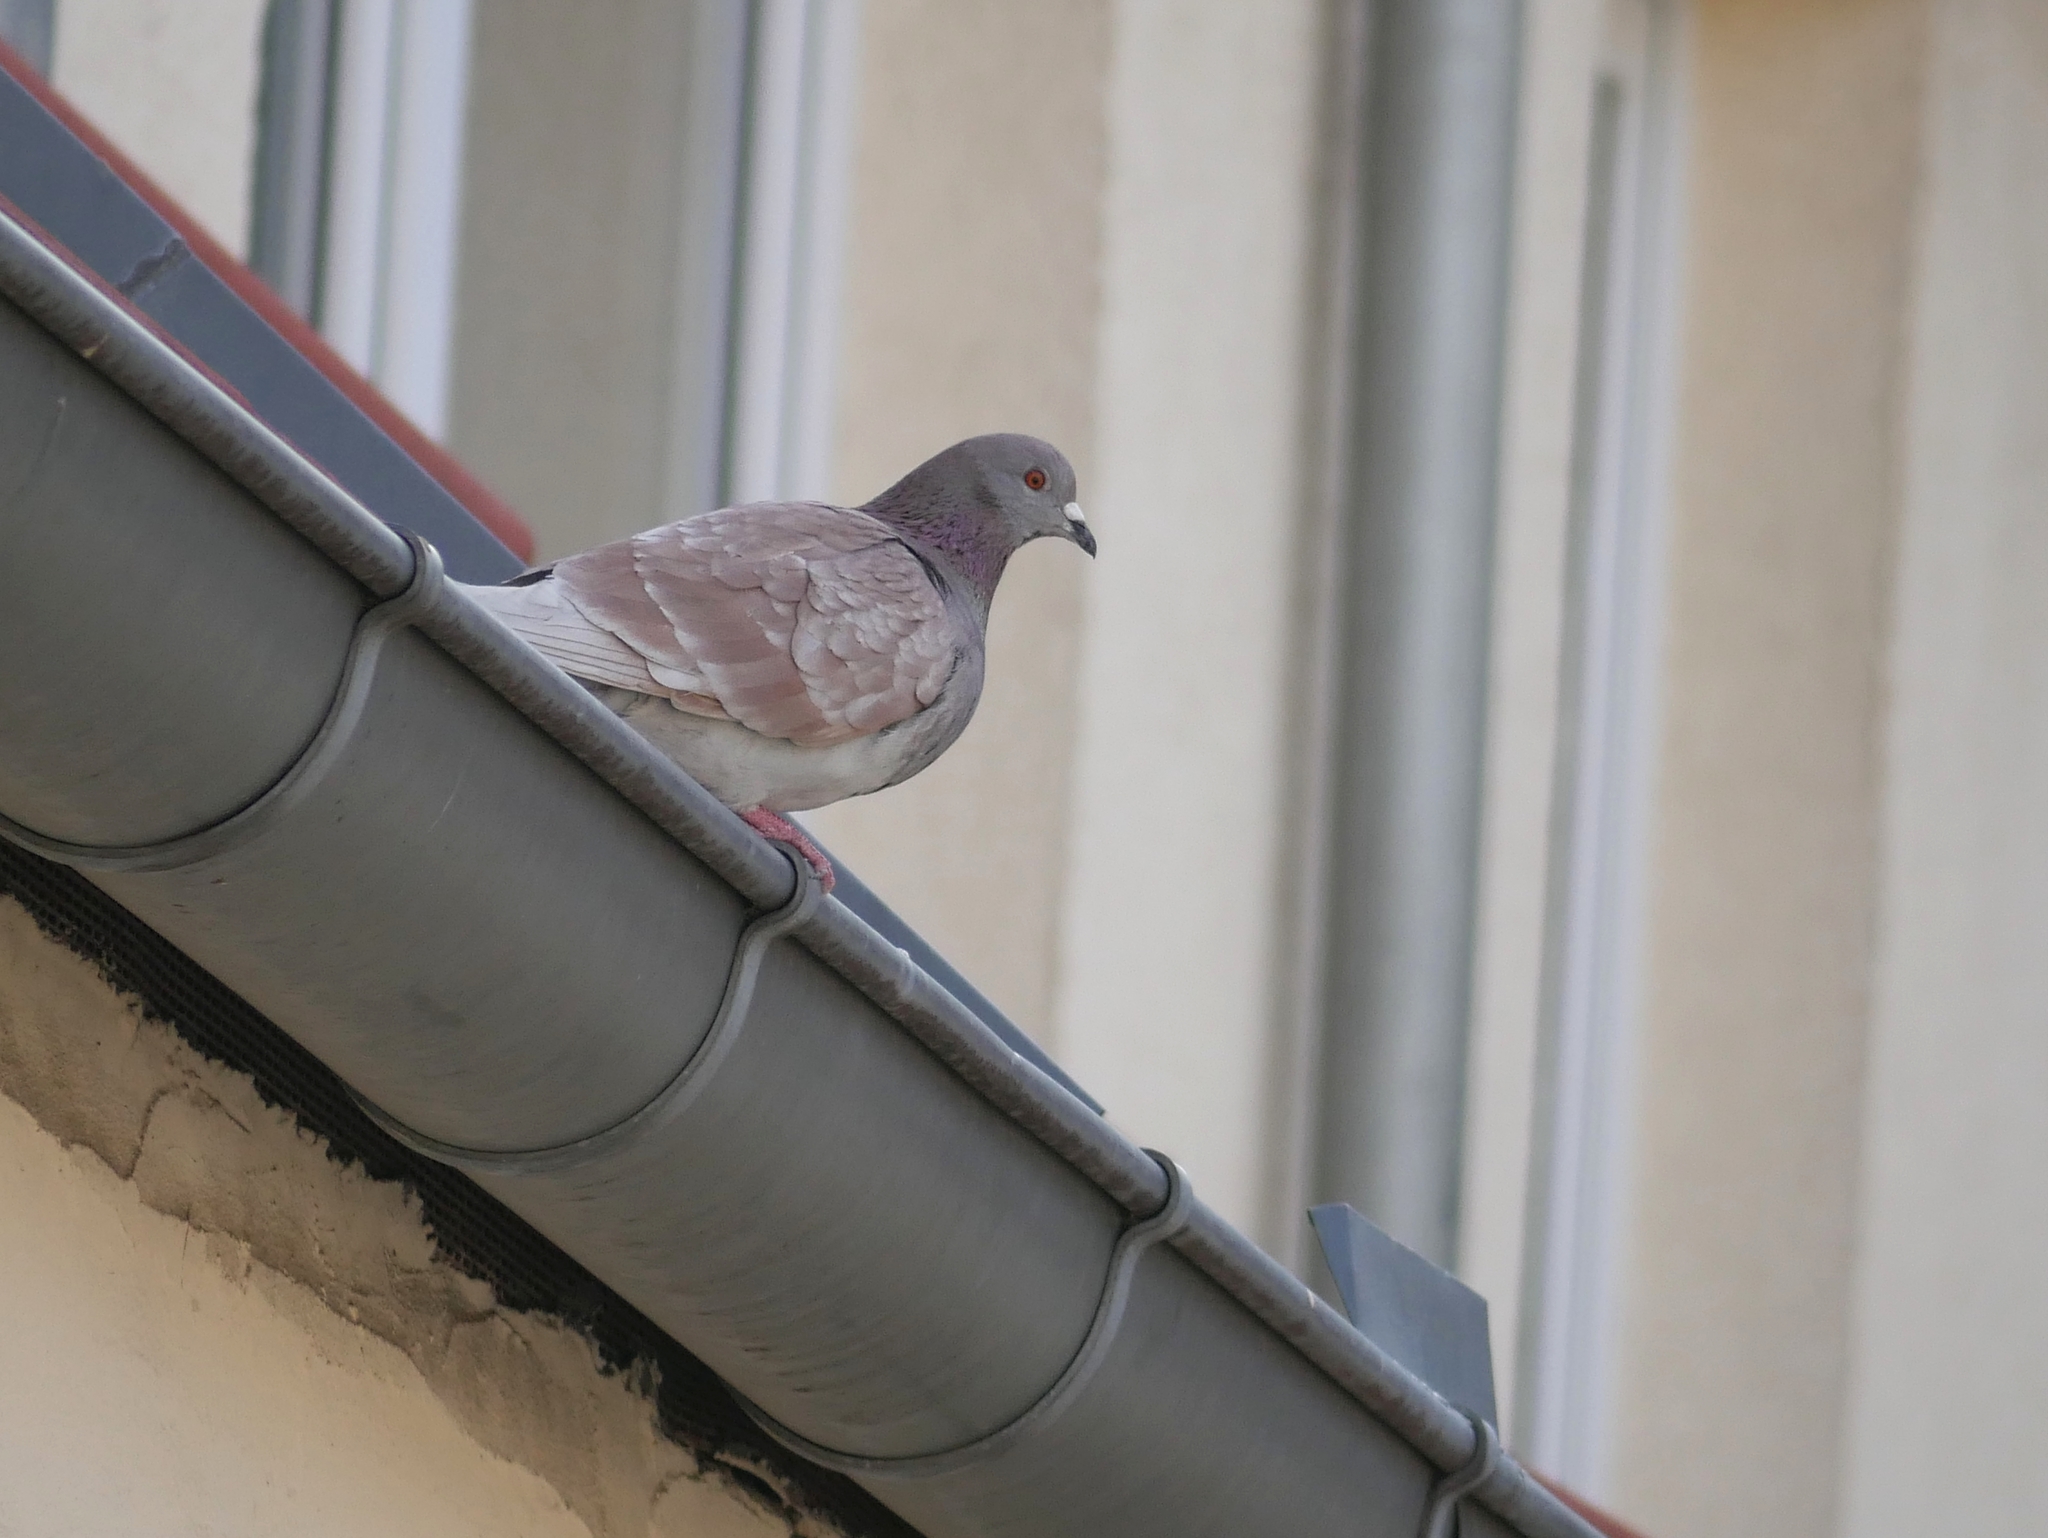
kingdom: Animalia
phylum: Chordata
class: Aves
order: Columbiformes
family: Columbidae
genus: Columba
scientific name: Columba livia
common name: Rock pigeon
